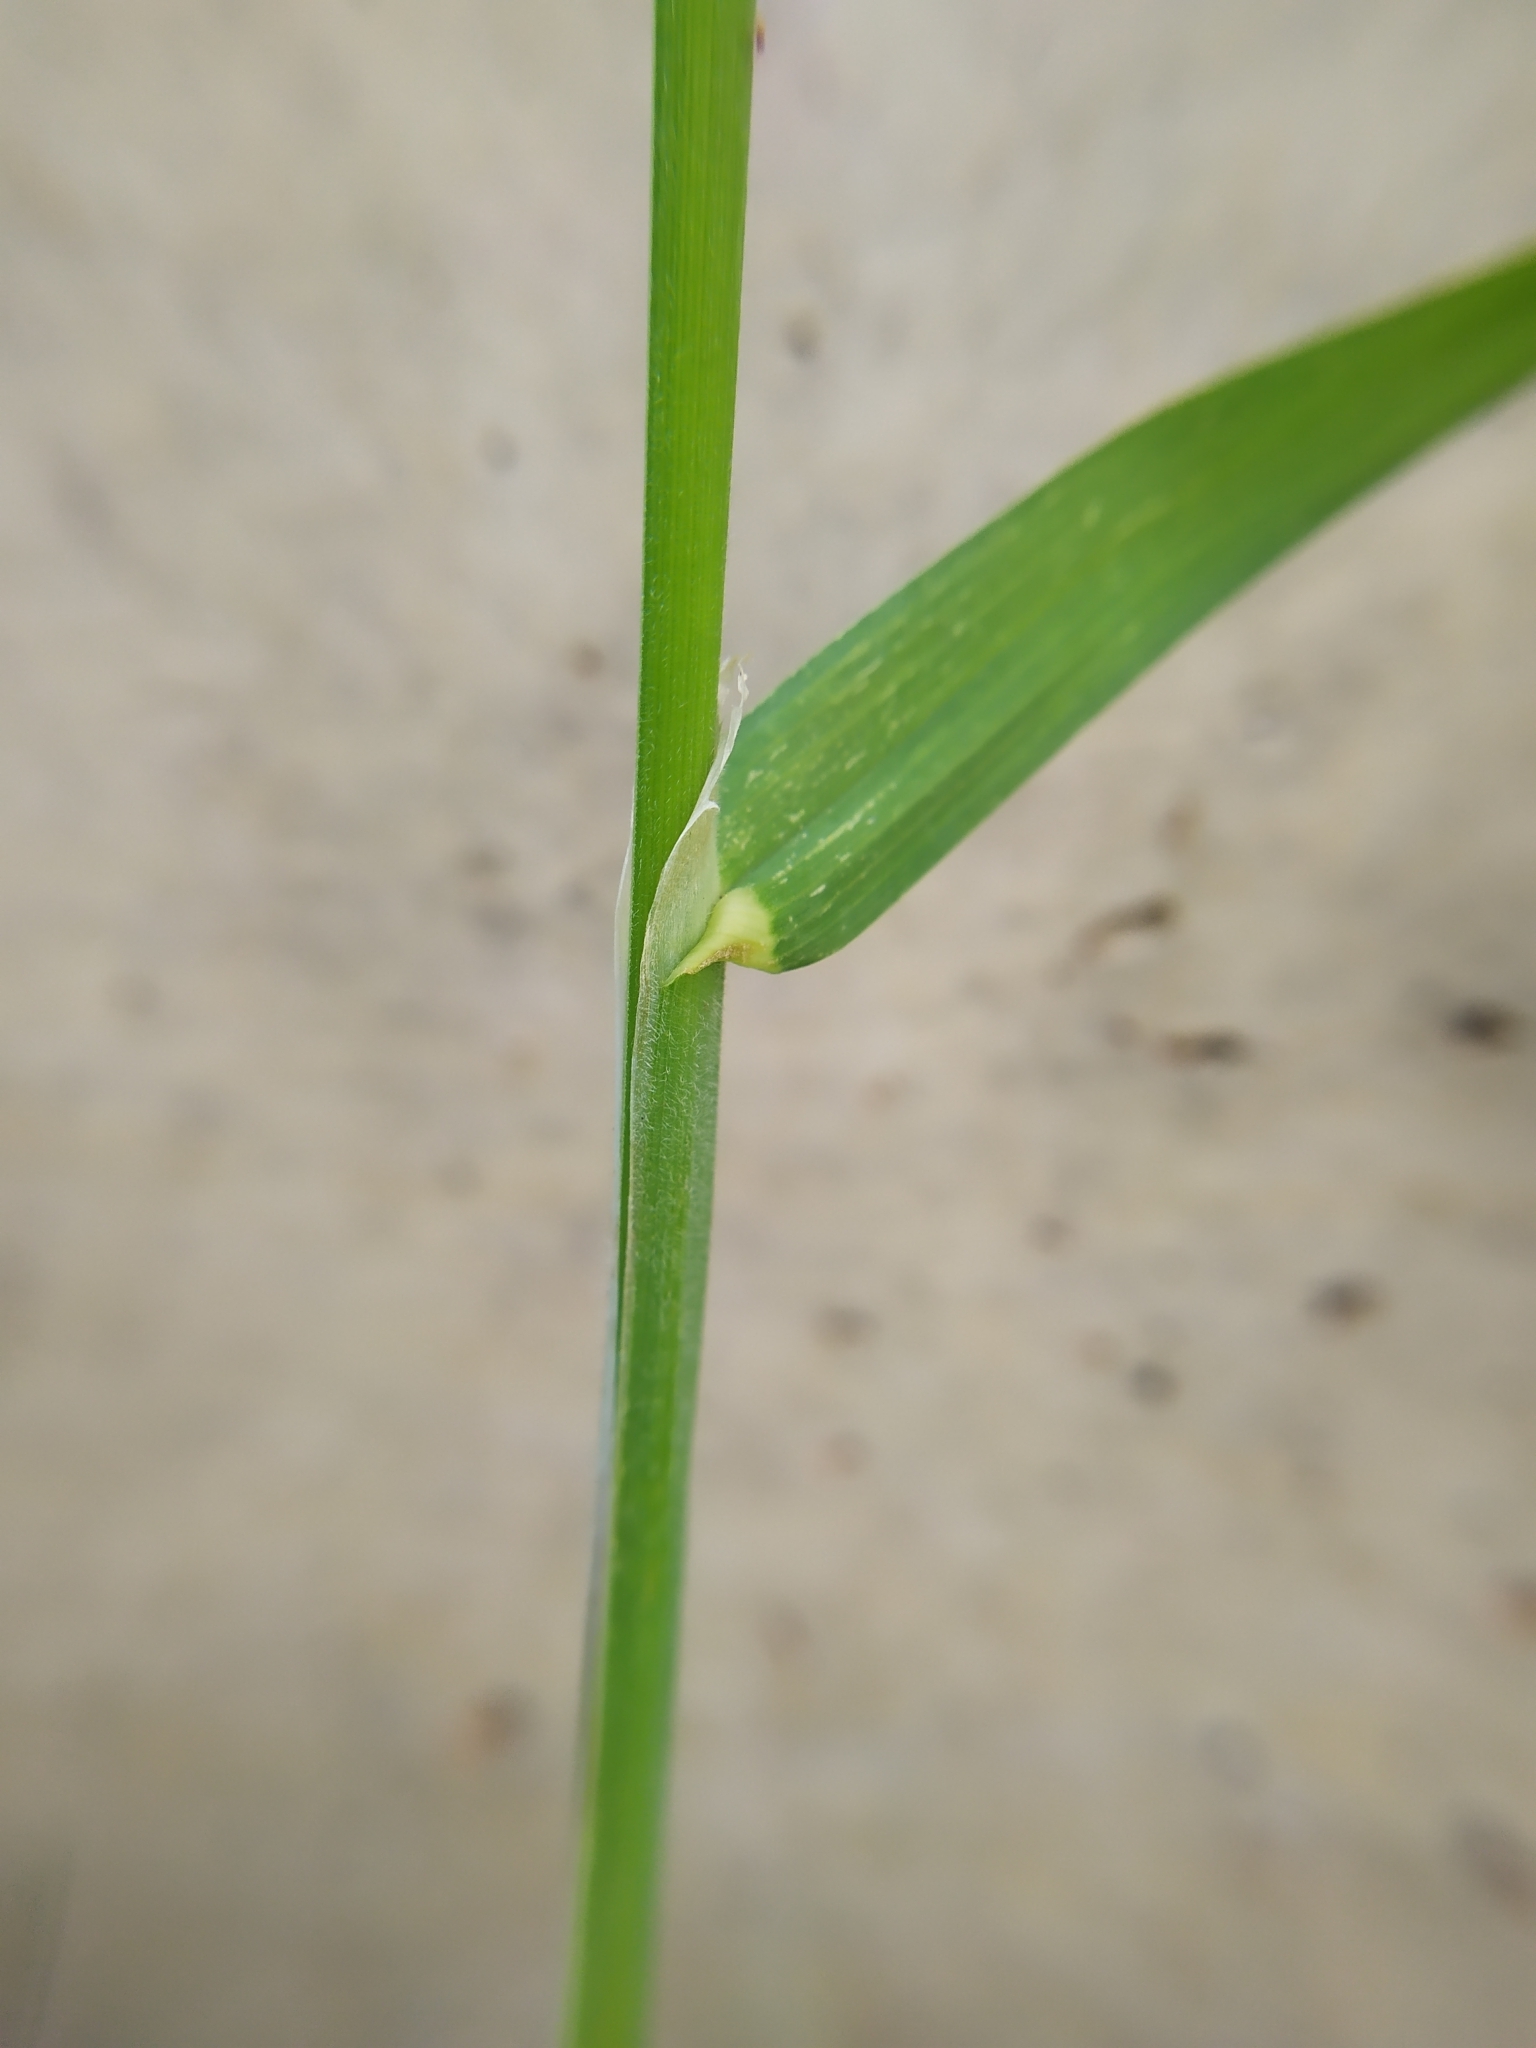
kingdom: Plantae
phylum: Tracheophyta
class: Liliopsida
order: Poales
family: Poaceae
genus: Dactylis
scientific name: Dactylis glomerata
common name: Orchardgrass
